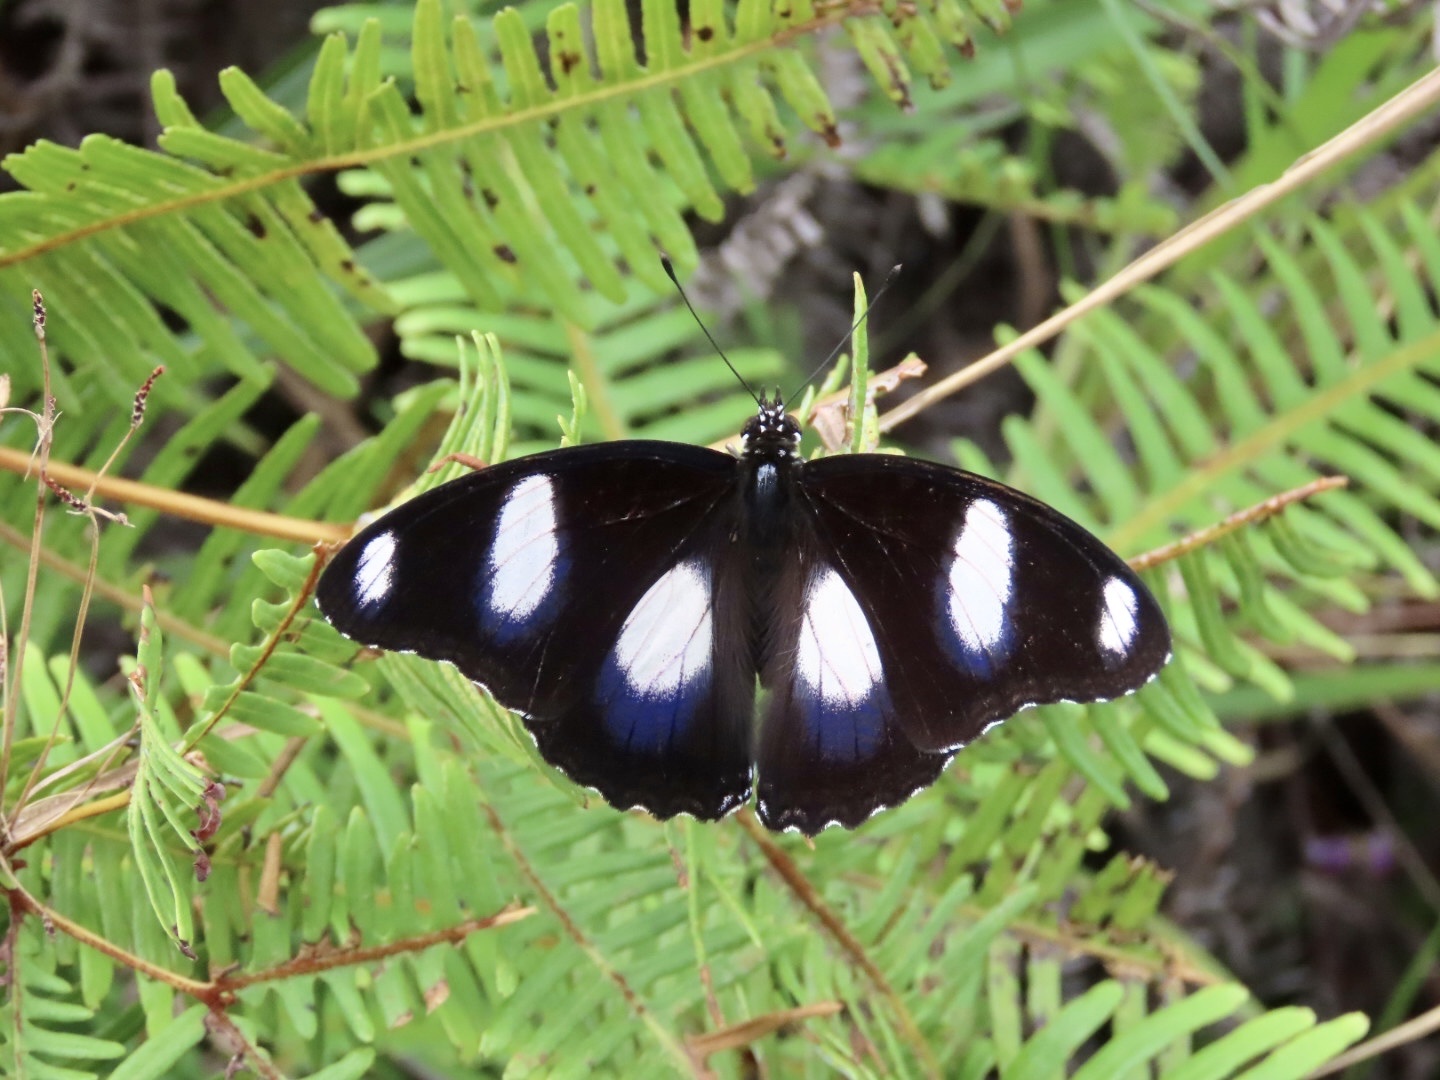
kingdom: Animalia
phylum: Arthropoda
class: Insecta
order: Lepidoptera
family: Nymphalidae
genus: Hypolimnas
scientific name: Hypolimnas misippus
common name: False plain tiger
